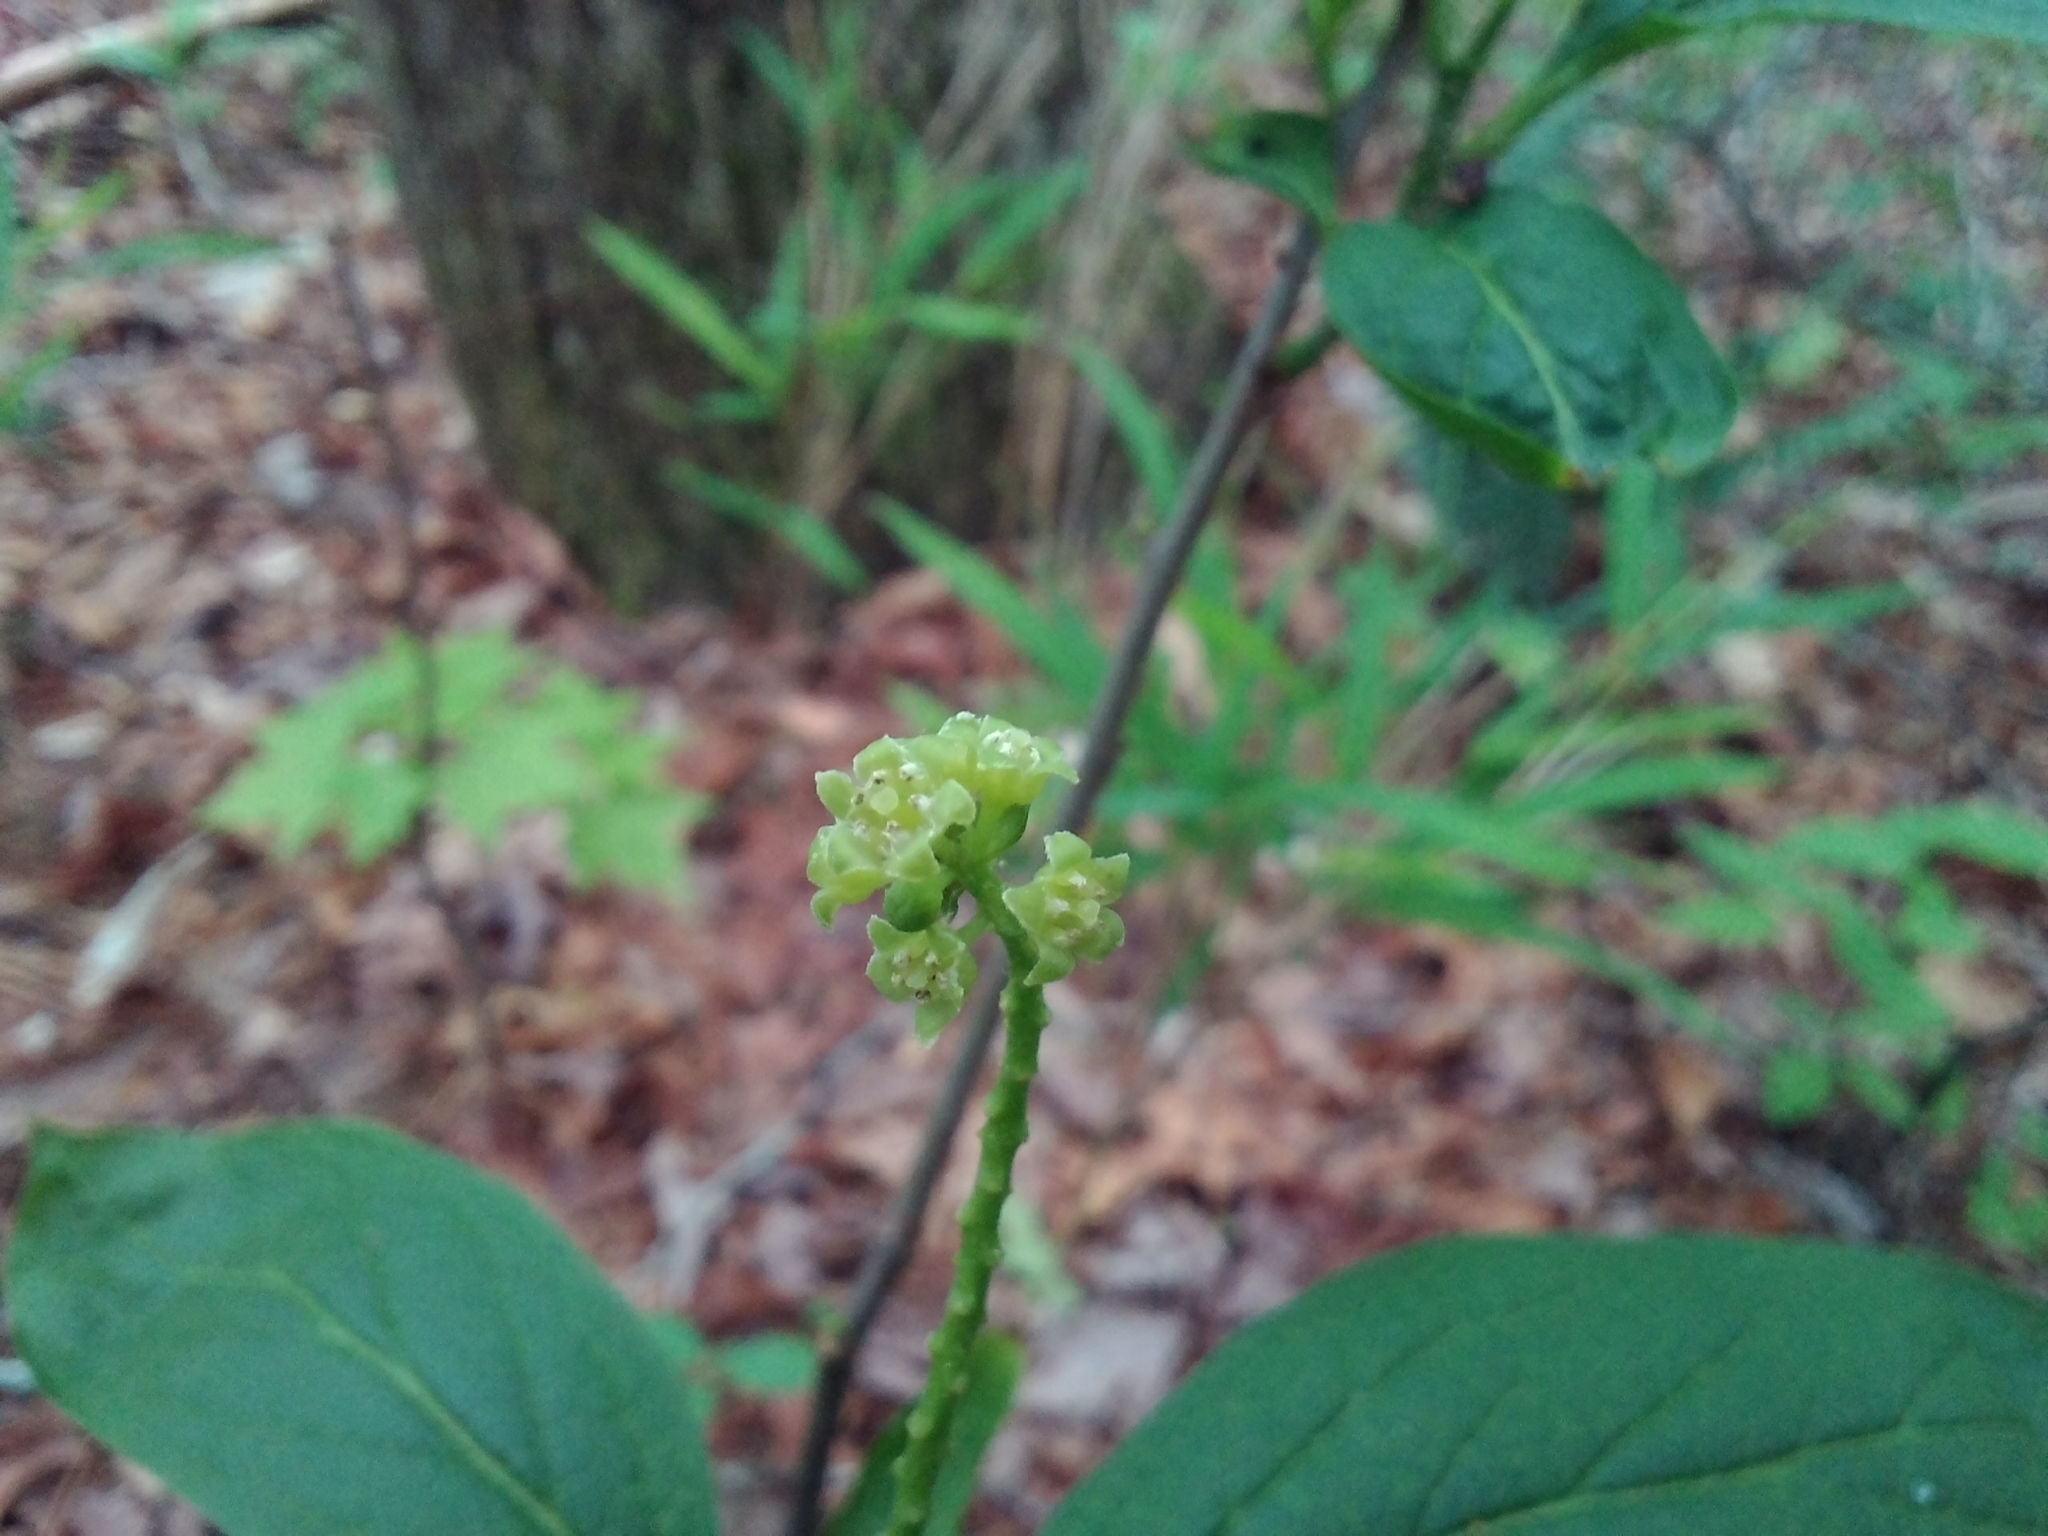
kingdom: Plantae
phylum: Tracheophyta
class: Magnoliopsida
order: Santalales
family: Cervantesiaceae
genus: Pyrularia
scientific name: Pyrularia pubera
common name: Oilnut
